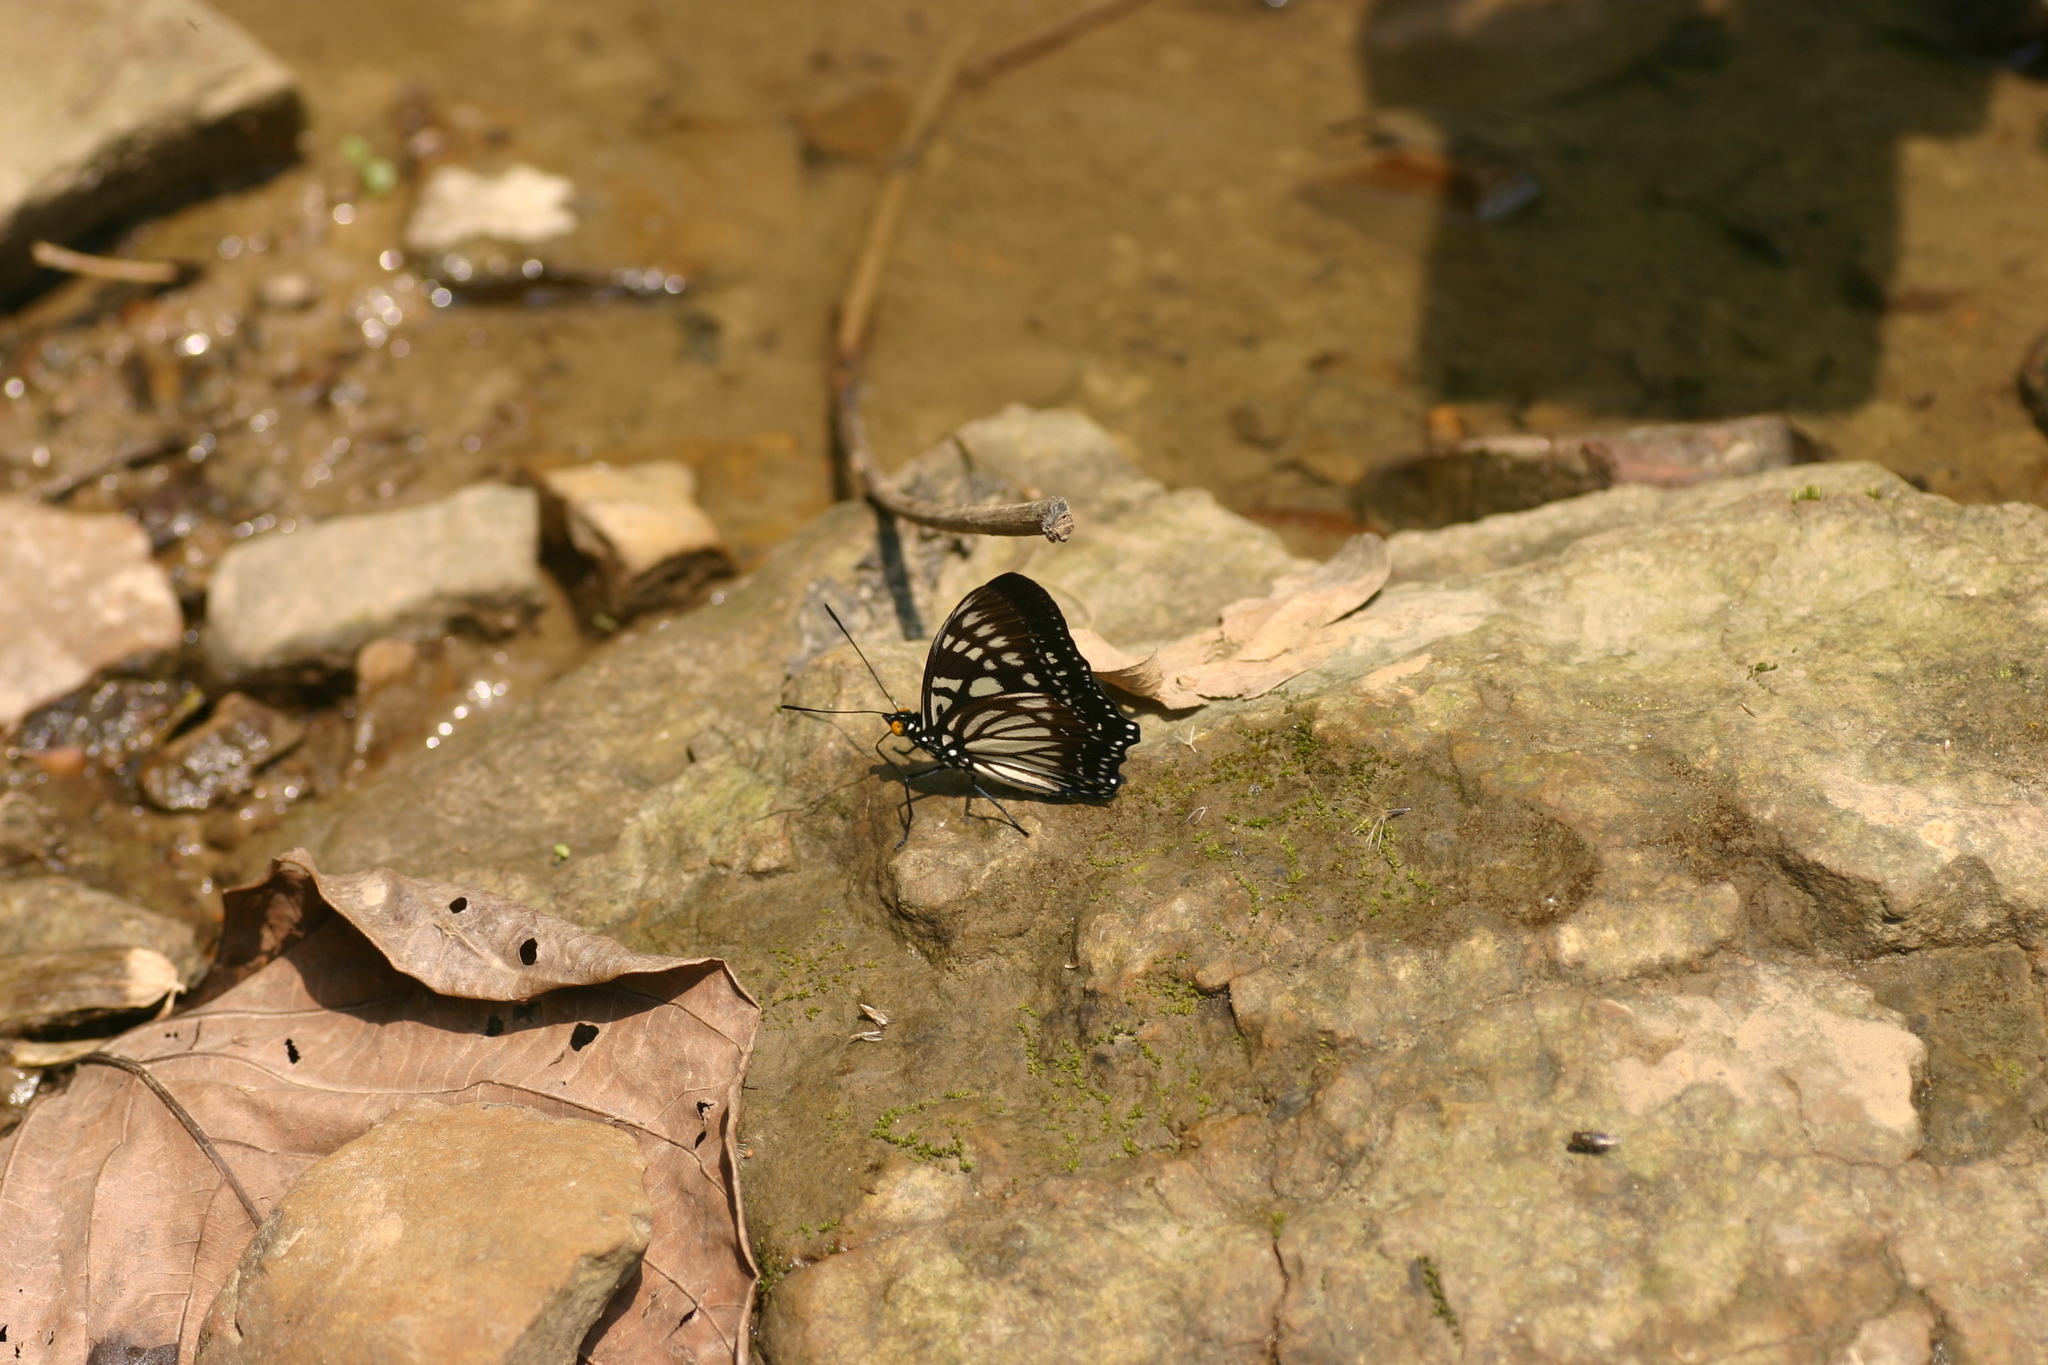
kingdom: Animalia
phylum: Arthropoda
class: Insecta
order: Lepidoptera
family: Nymphalidae
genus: Euripus
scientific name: Euripus nyctelius
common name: Courtesan
